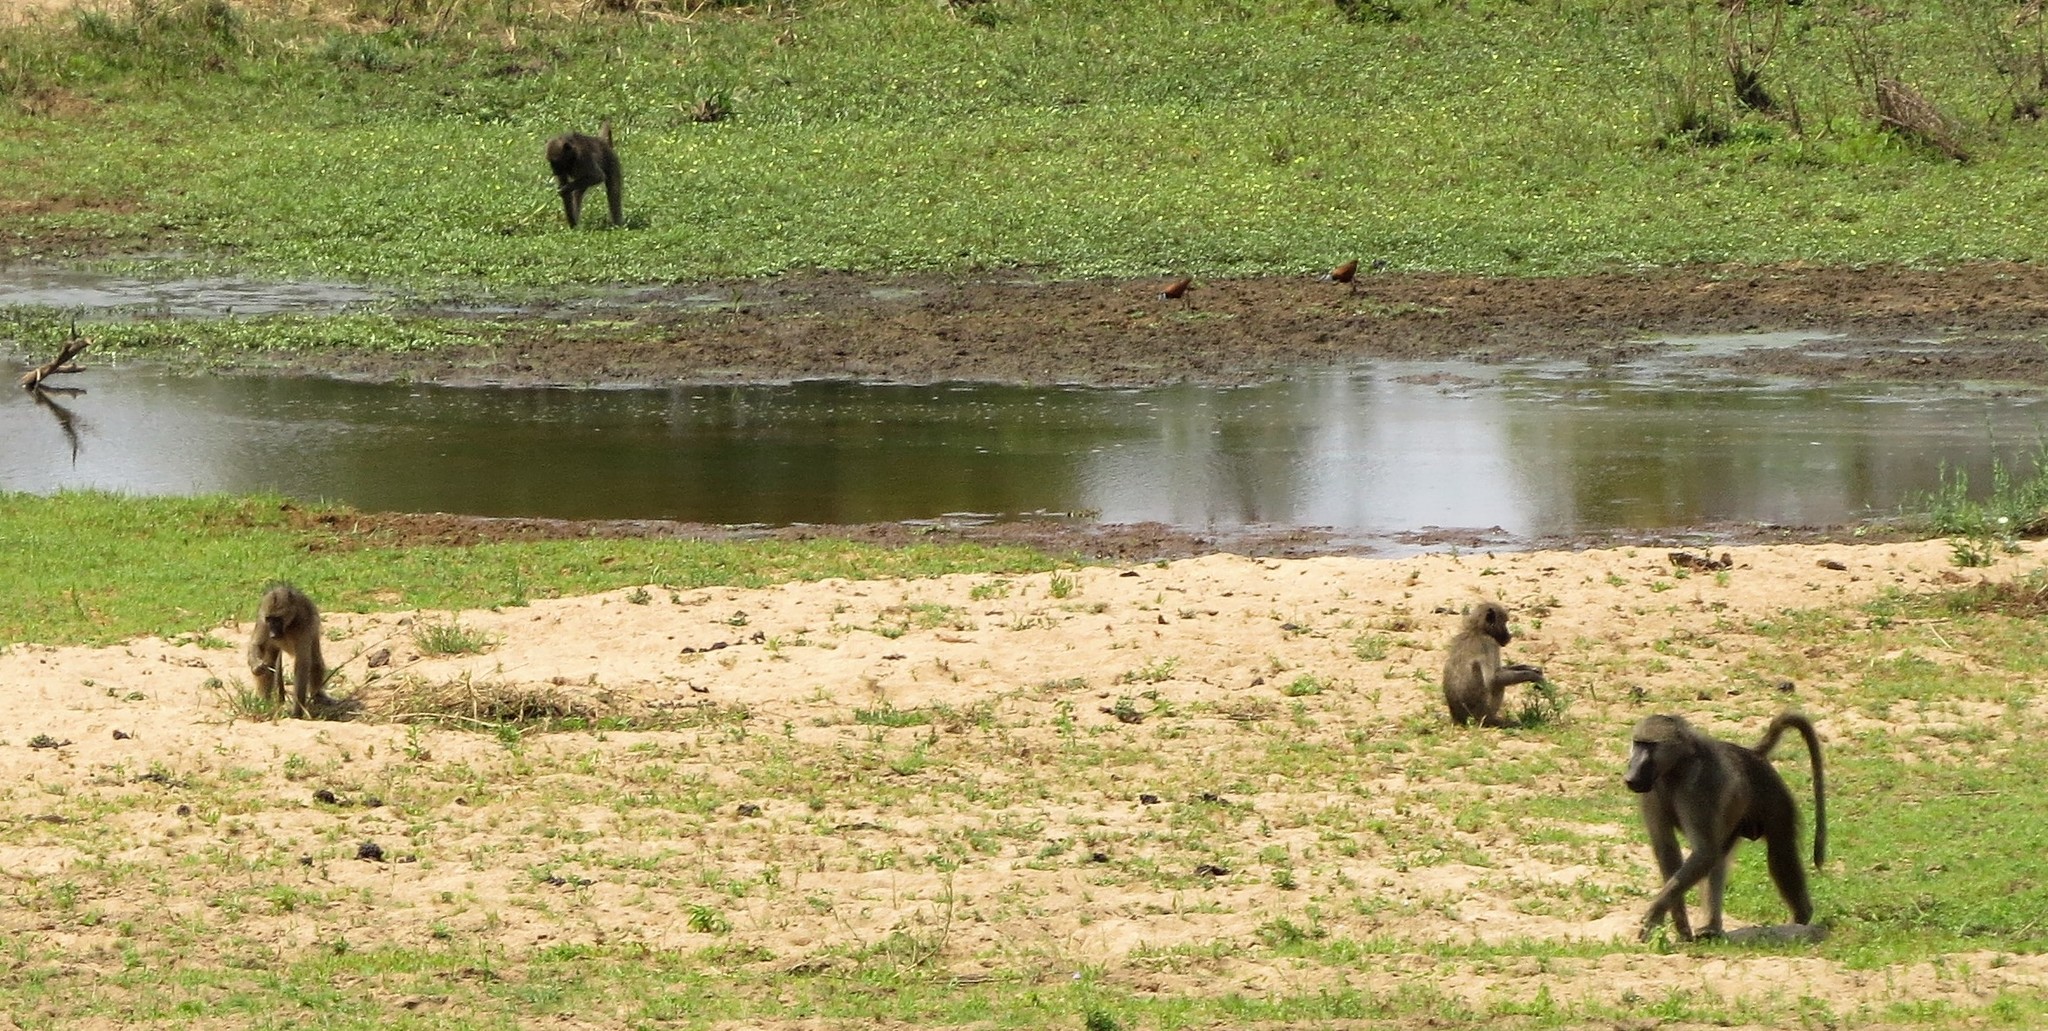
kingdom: Animalia
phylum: Chordata
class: Mammalia
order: Primates
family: Cercopithecidae
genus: Papio
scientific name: Papio ursinus
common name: Chacma baboon
